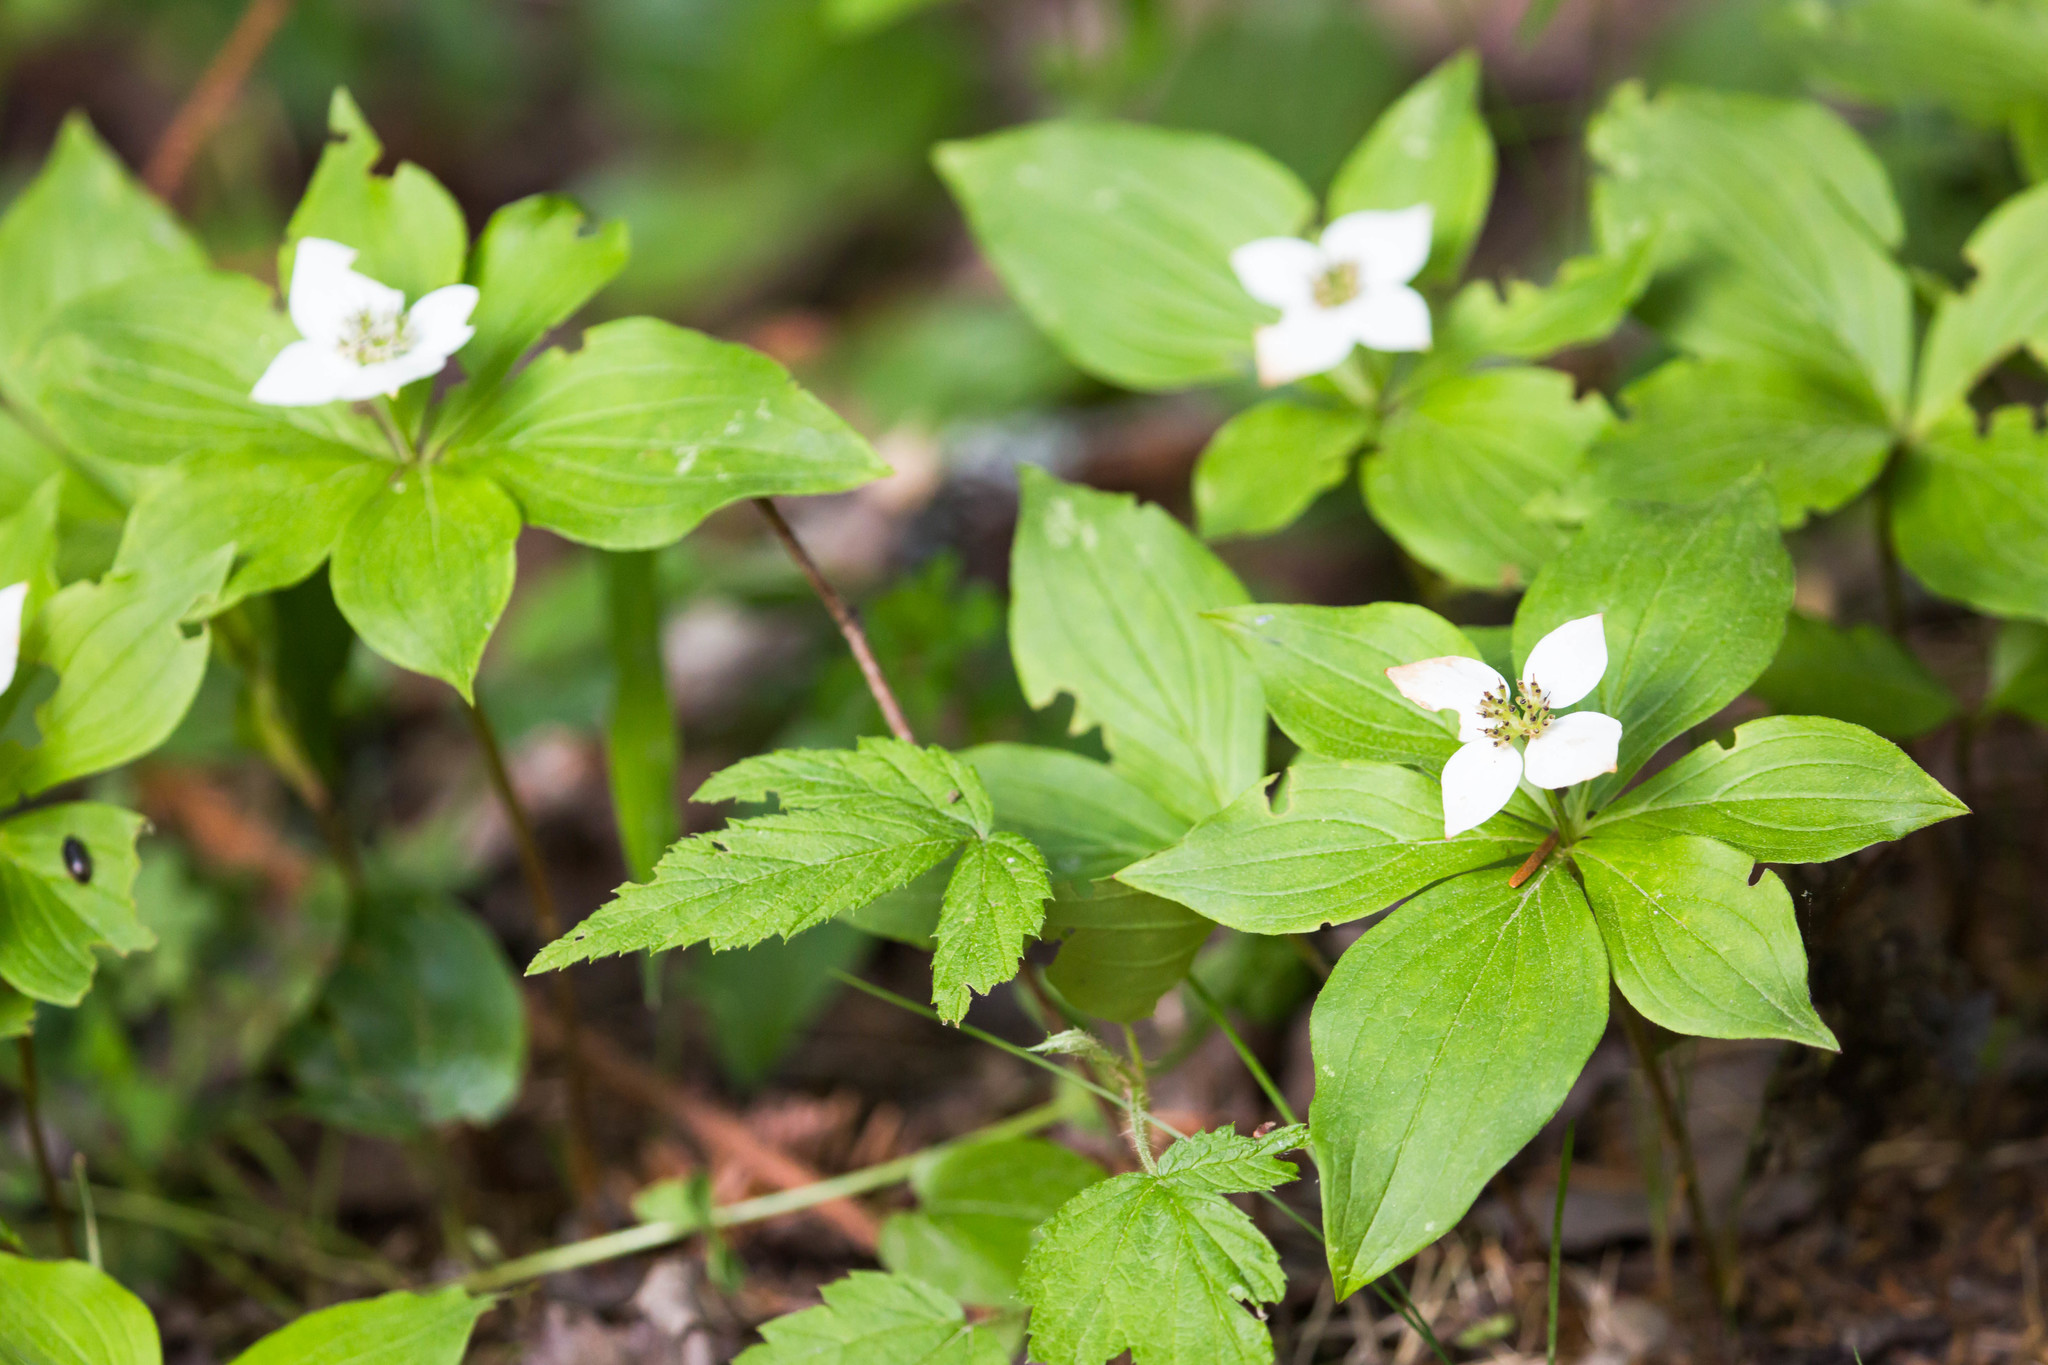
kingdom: Plantae
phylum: Tracheophyta
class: Magnoliopsida
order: Cornales
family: Cornaceae
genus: Cornus
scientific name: Cornus canadensis
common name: Creeping dogwood
